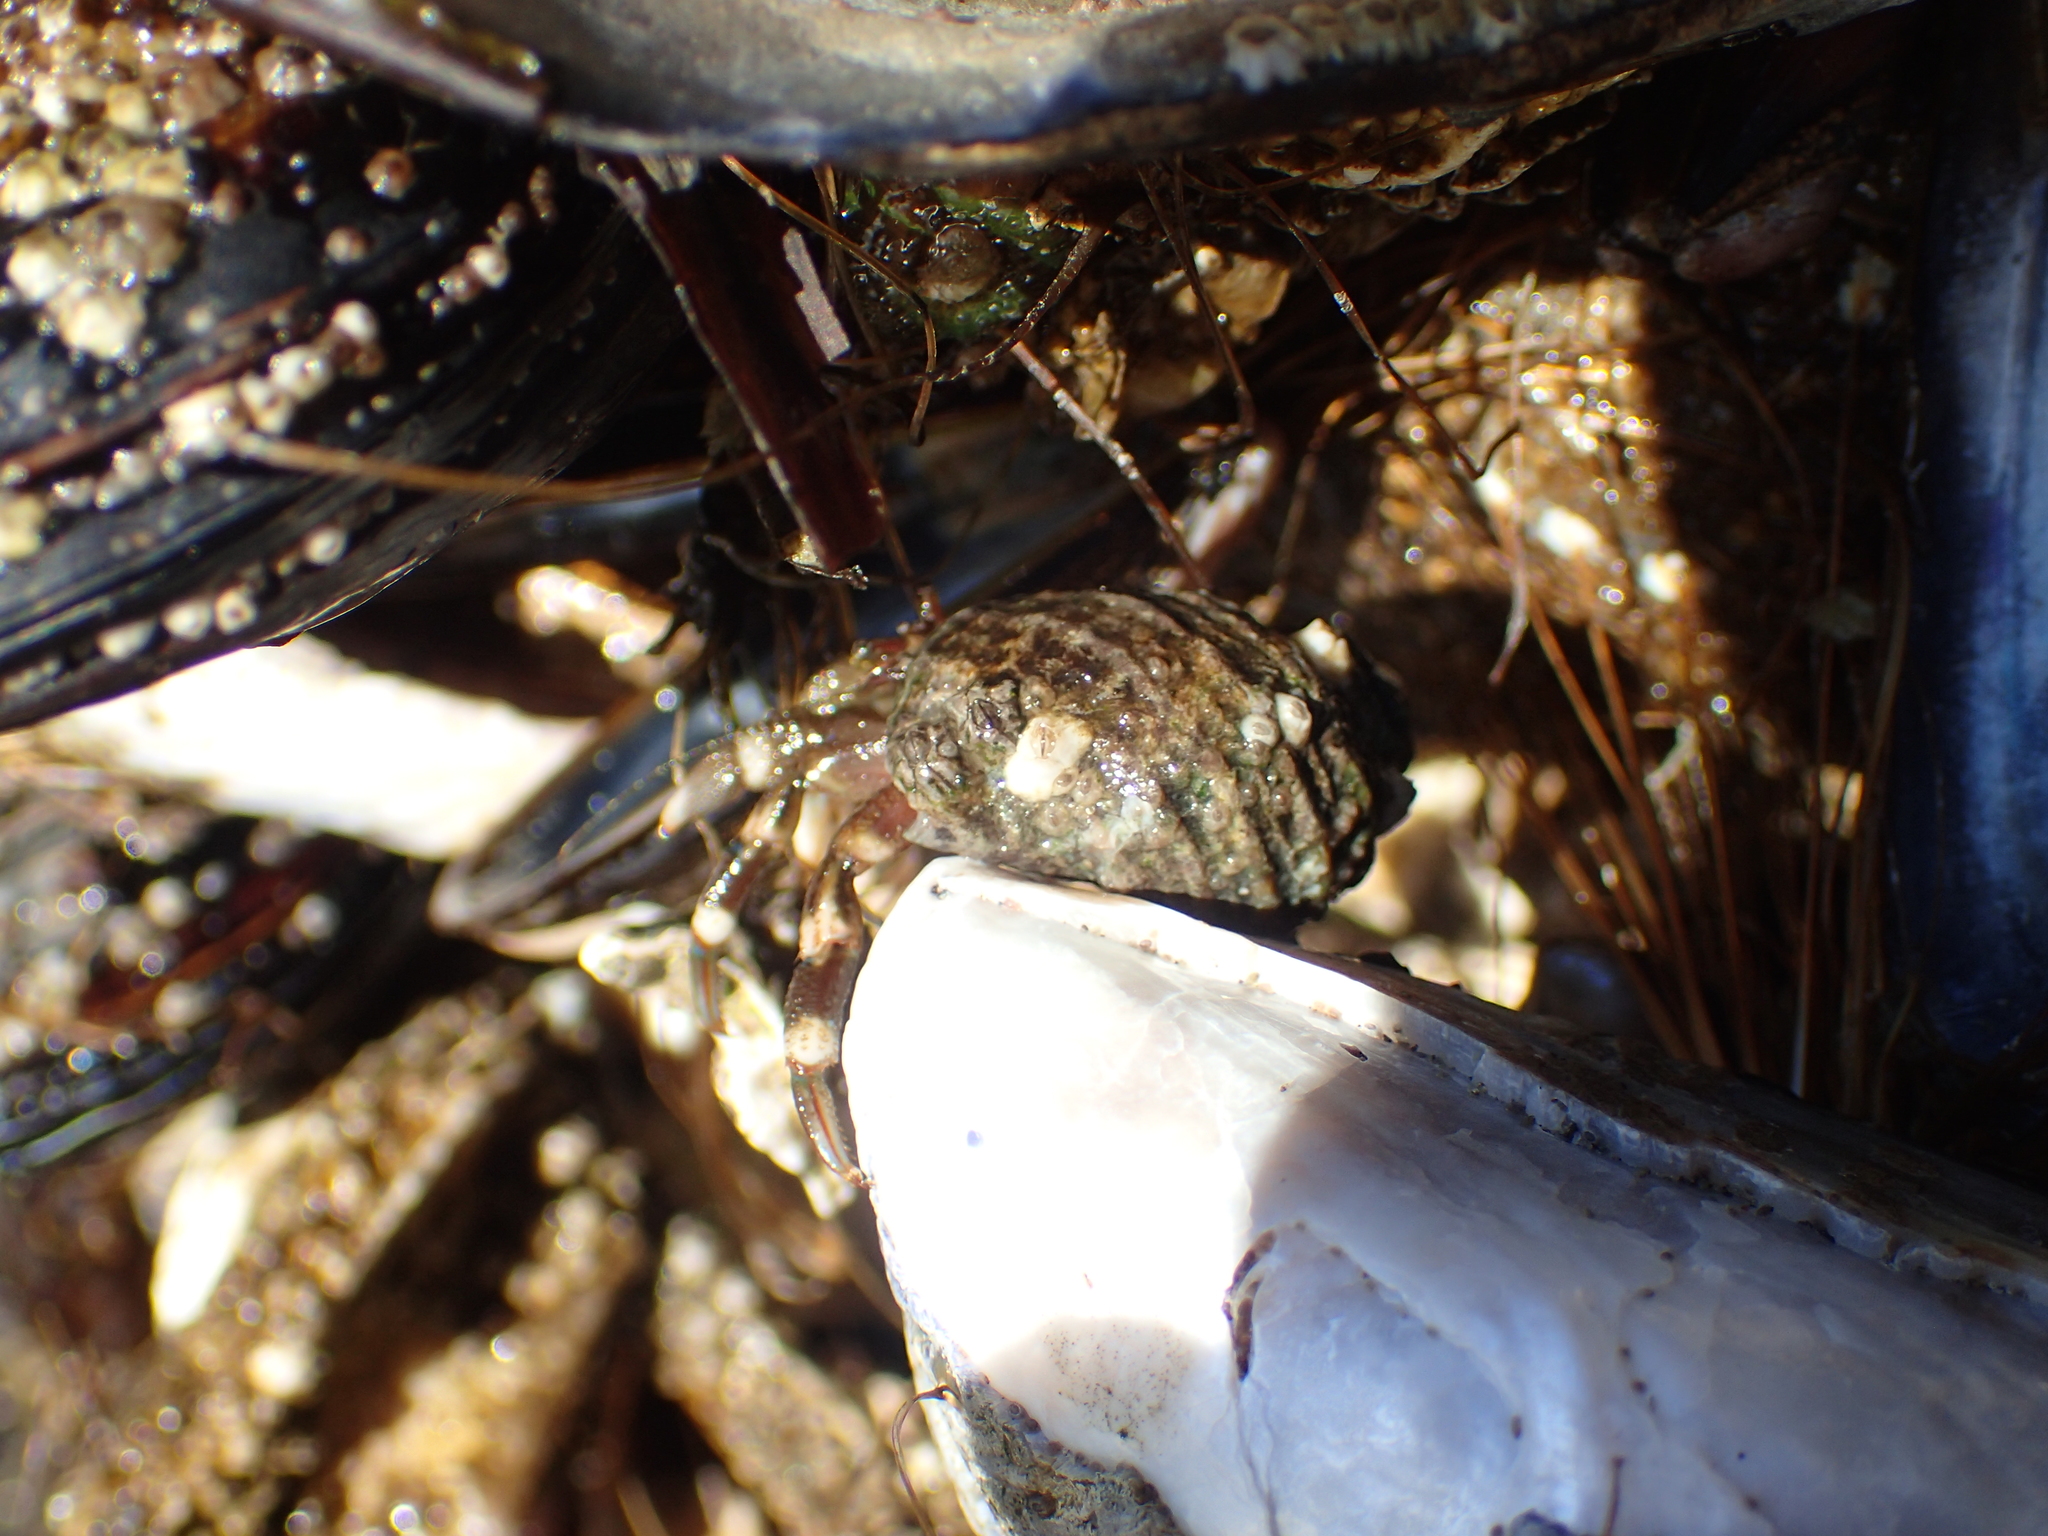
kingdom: Animalia
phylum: Arthropoda
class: Malacostraca
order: Decapoda
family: Paguridae
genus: Pagurus
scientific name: Pagurus hirsutiusculus
